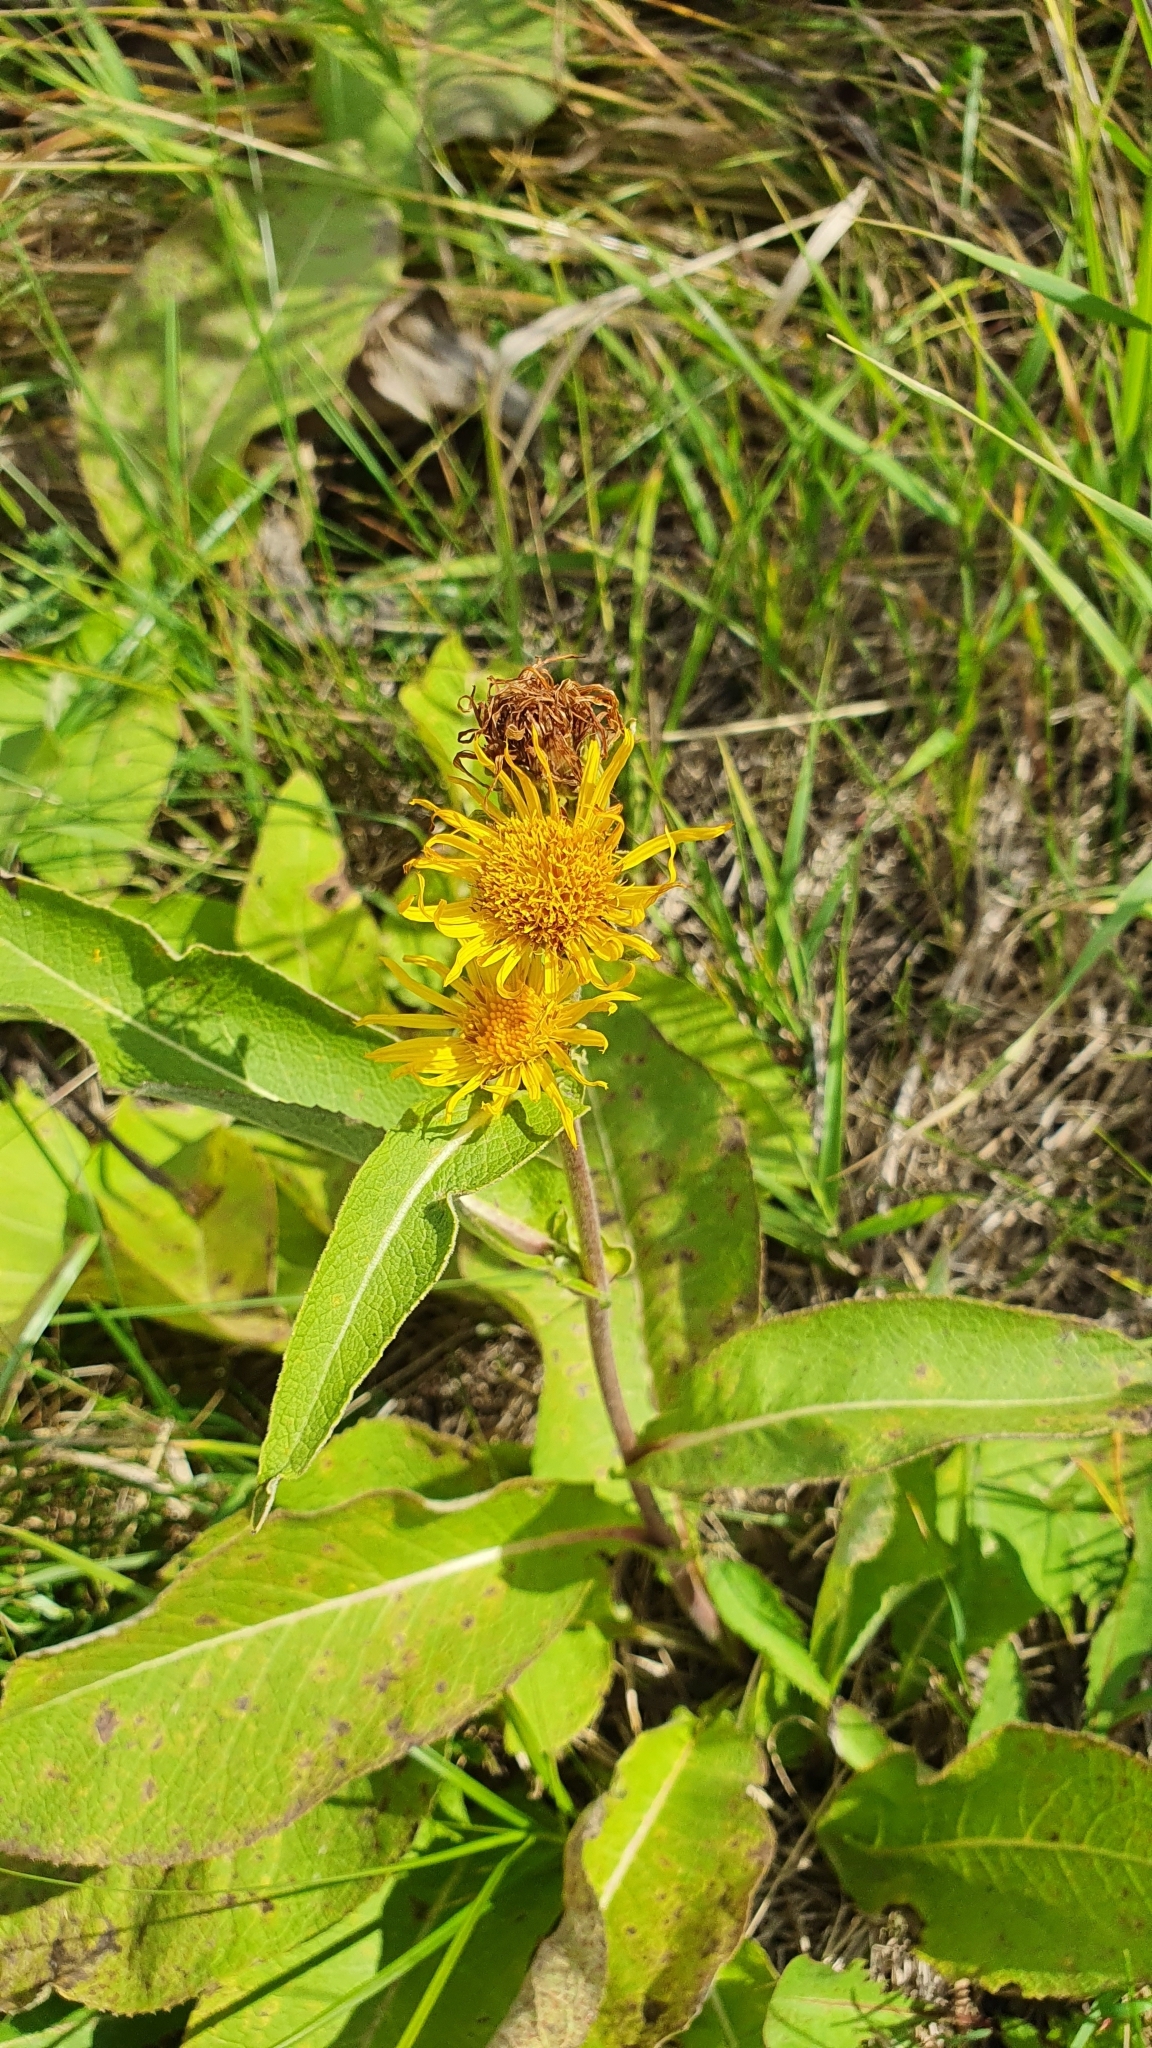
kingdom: Plantae
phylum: Tracheophyta
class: Magnoliopsida
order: Asterales
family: Asteraceae
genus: Inula
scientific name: Inula helenium
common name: Elecampane
